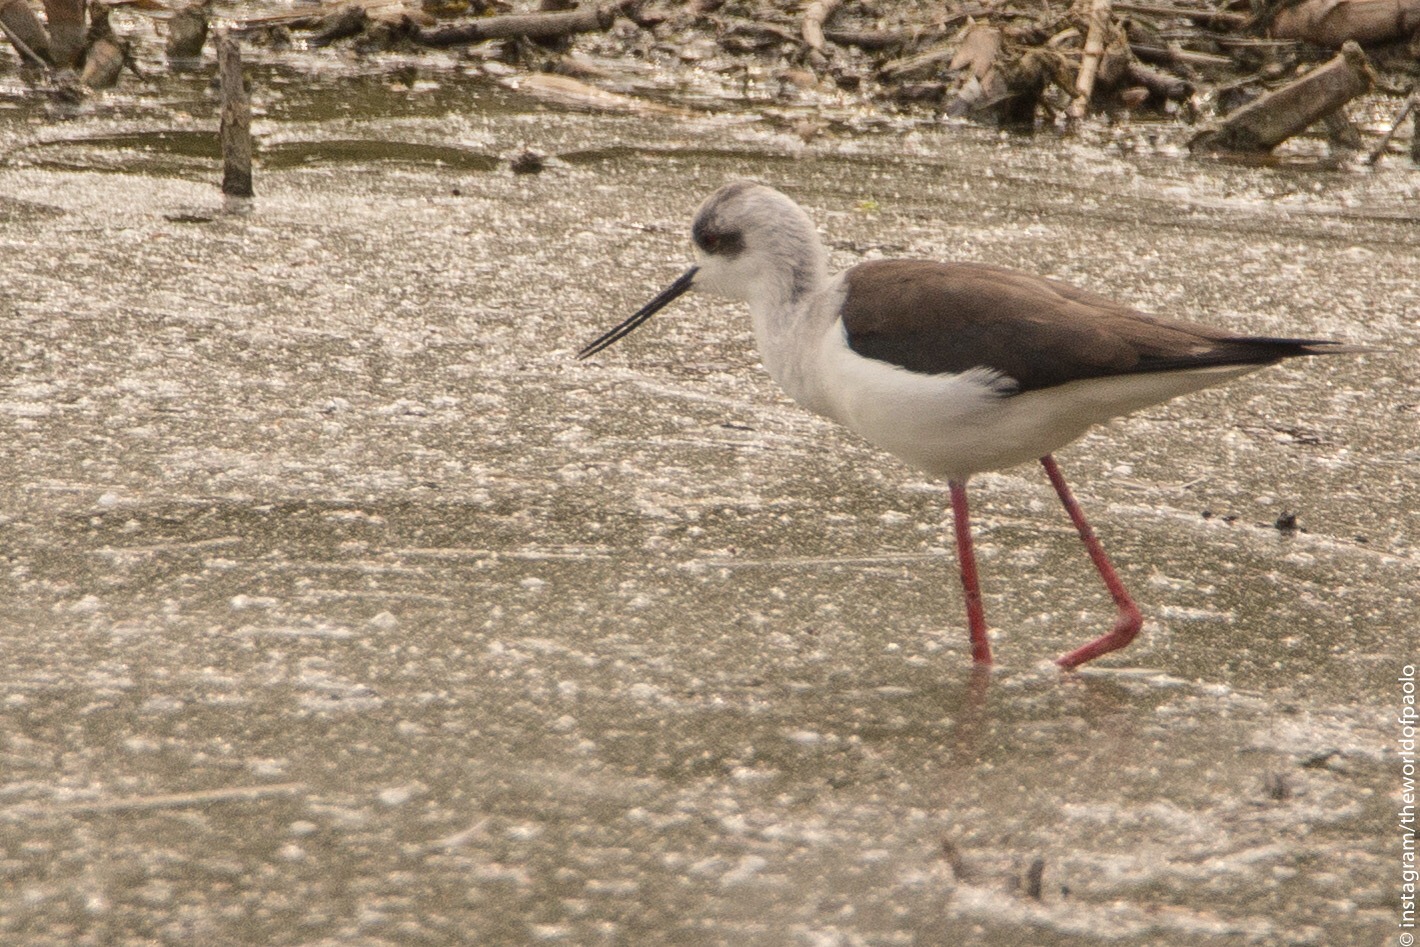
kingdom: Animalia
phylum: Chordata
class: Aves
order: Charadriiformes
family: Recurvirostridae
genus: Himantopus
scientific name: Himantopus himantopus
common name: Black-winged stilt
